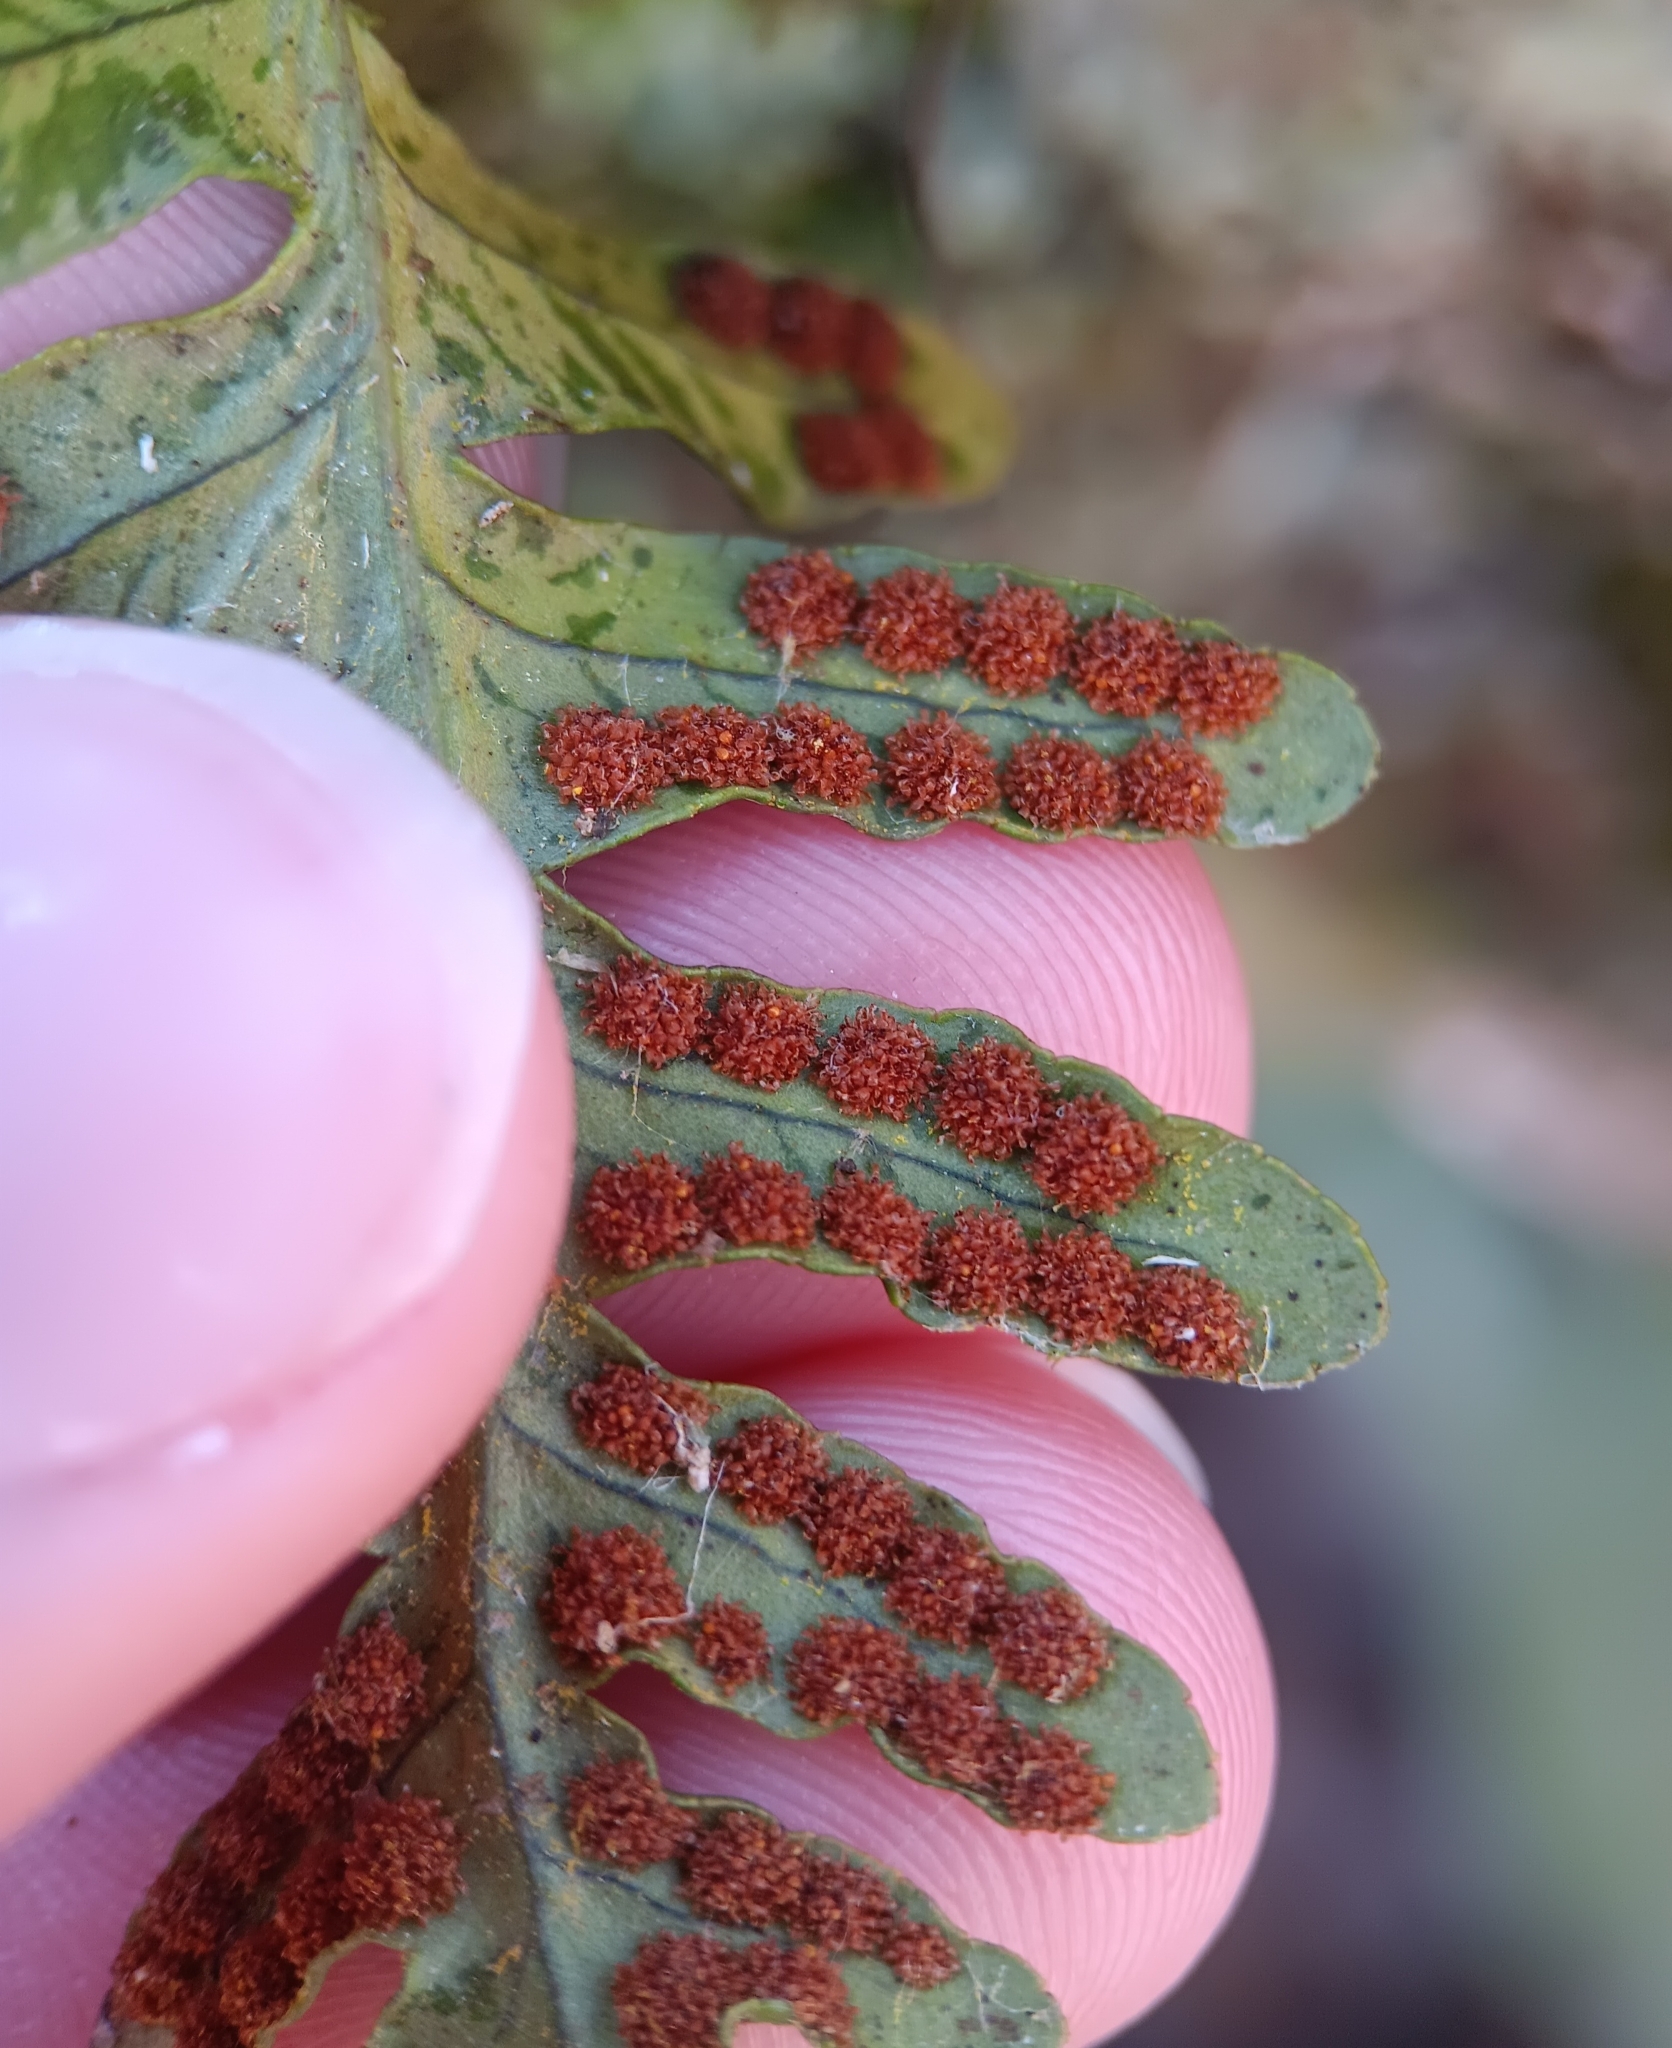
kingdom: Plantae
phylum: Tracheophyta
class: Polypodiopsida
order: Polypodiales
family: Polypodiaceae
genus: Polypodium
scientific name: Polypodium virginianum
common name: American wall fern
